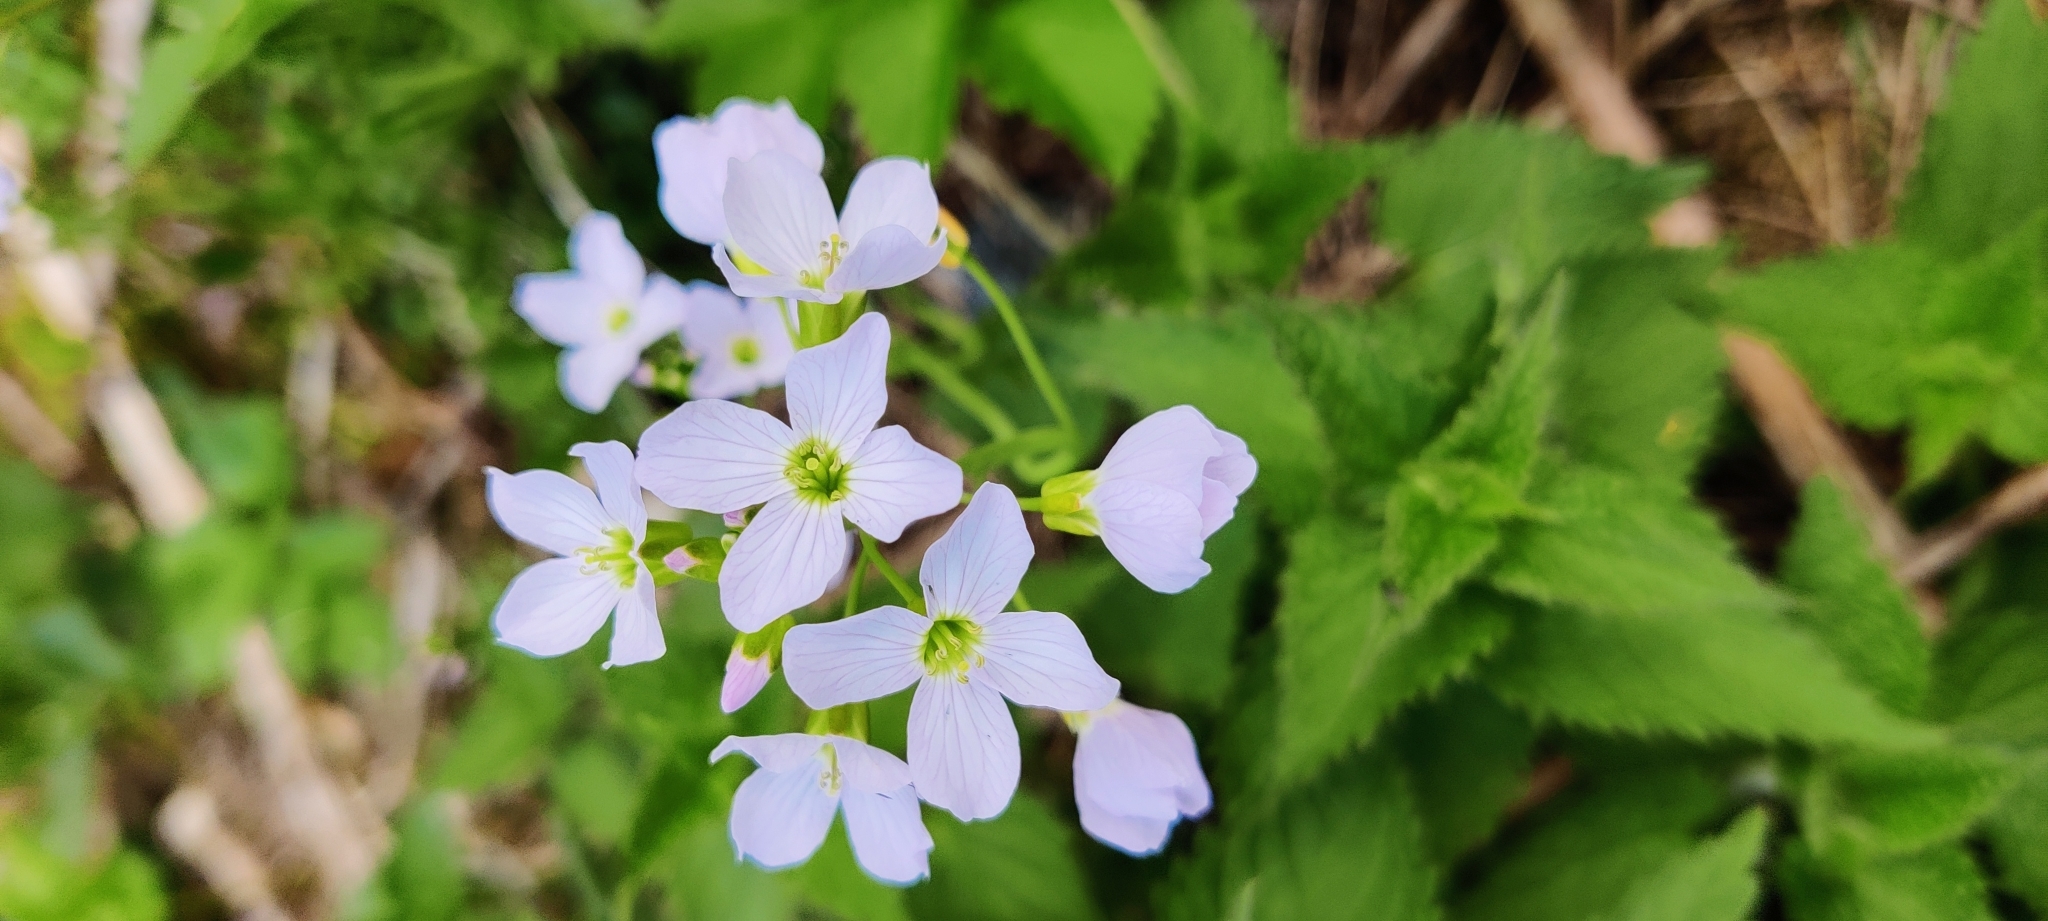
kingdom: Plantae
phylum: Tracheophyta
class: Magnoliopsida
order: Brassicales
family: Brassicaceae
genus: Cardamine
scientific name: Cardamine pratensis
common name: Cuckoo flower
